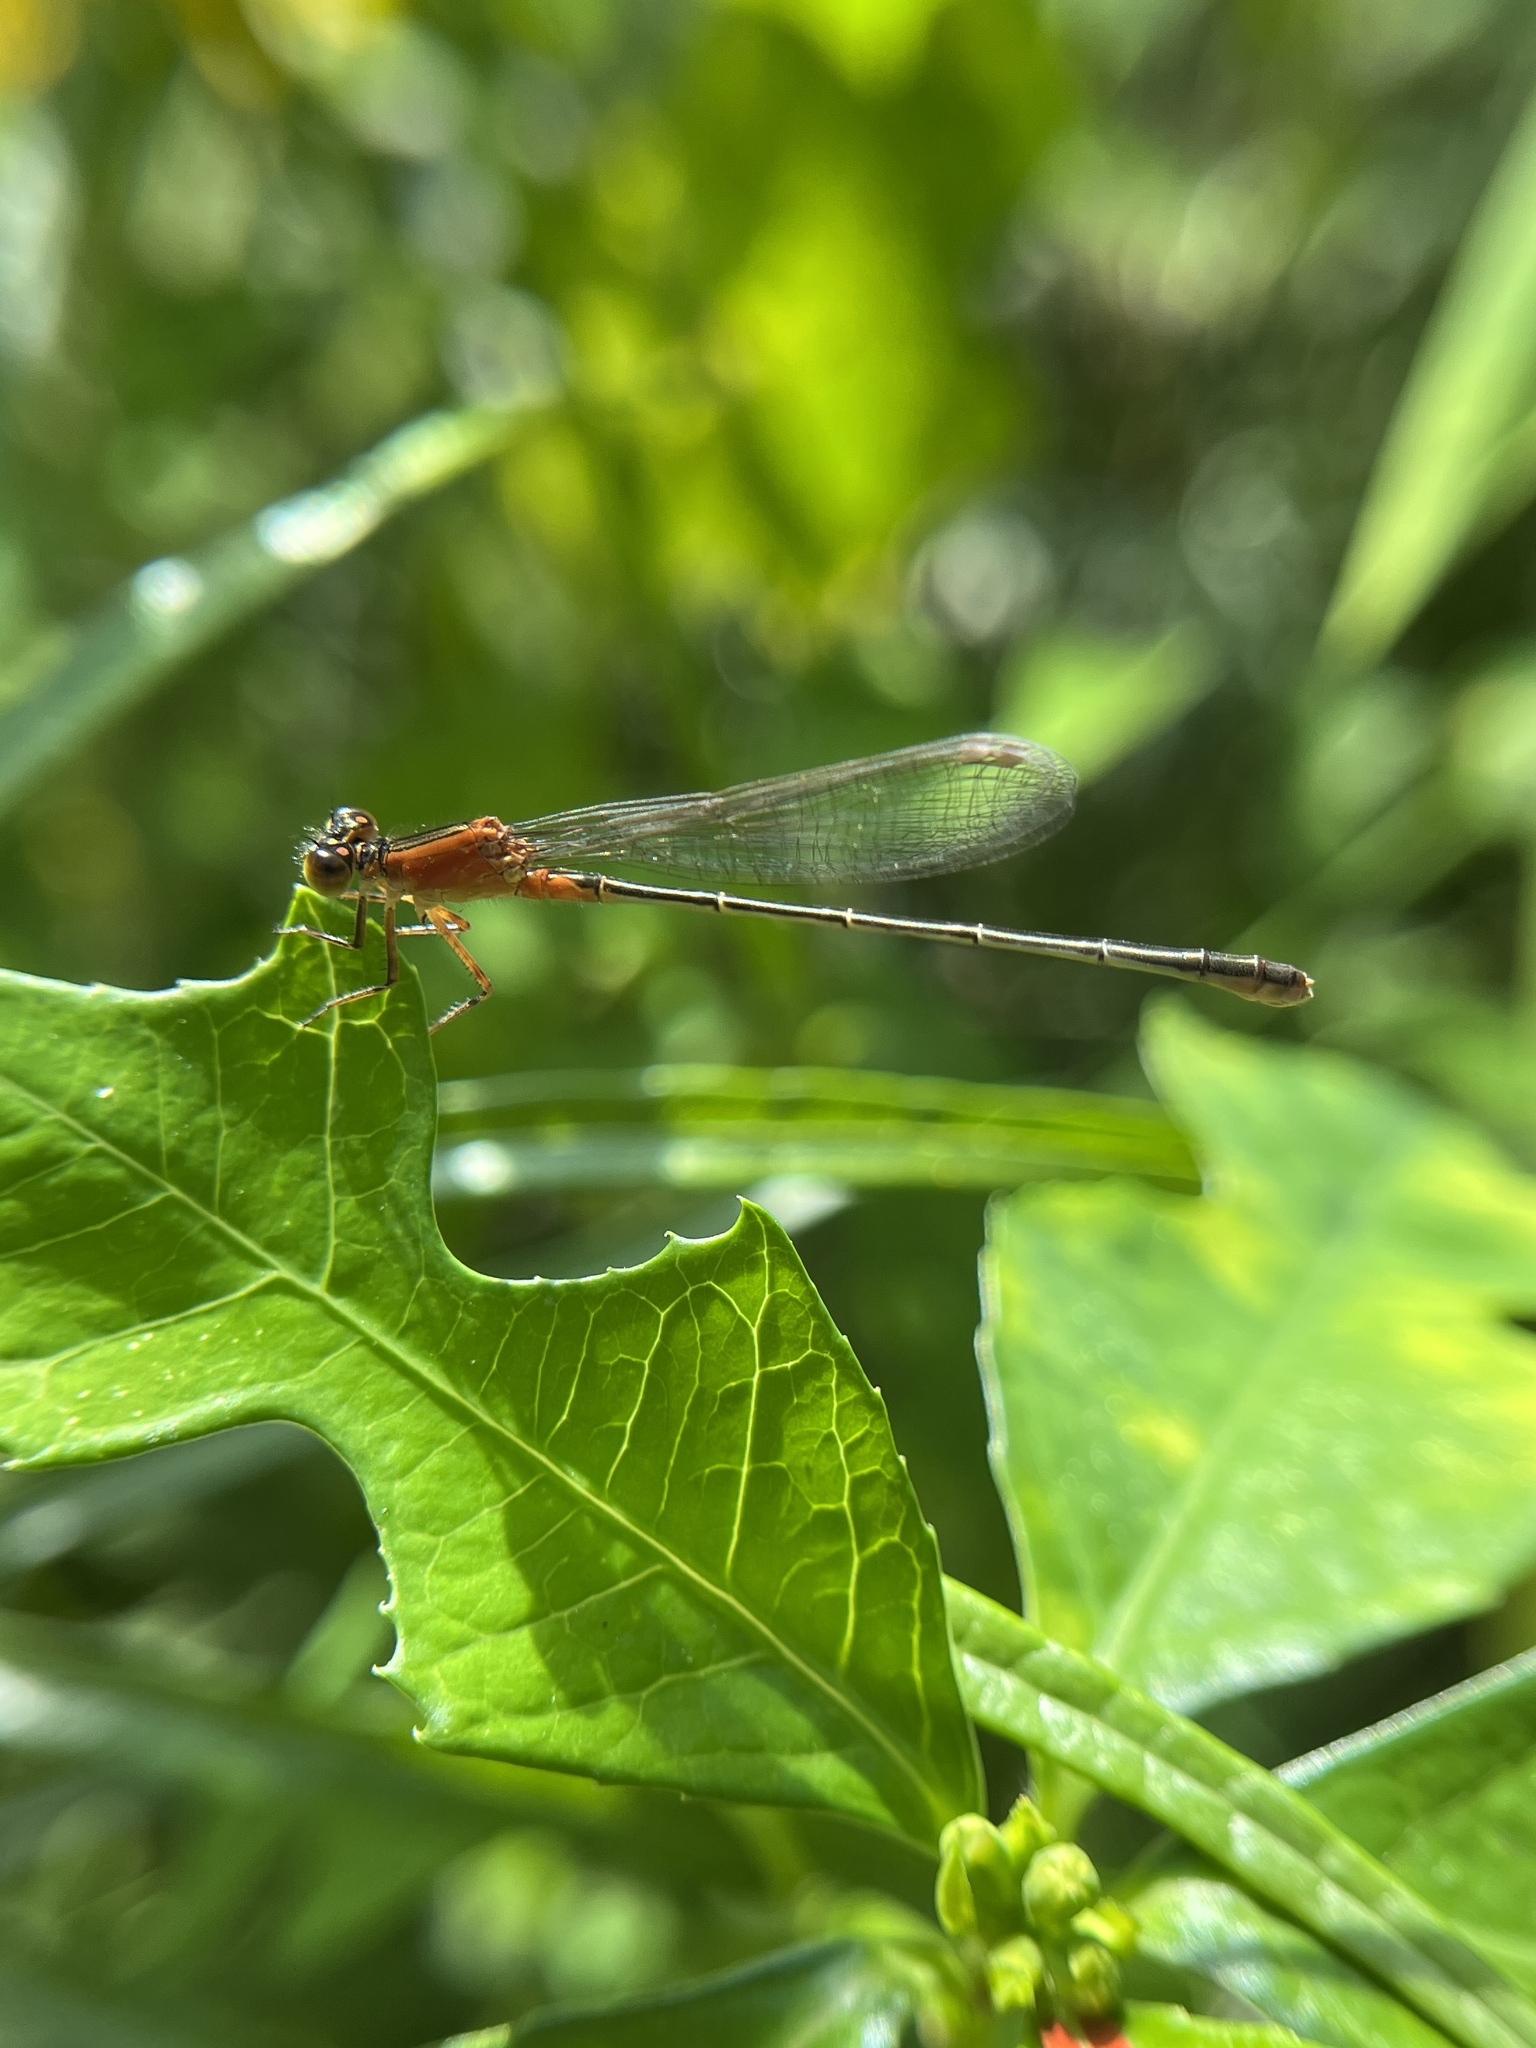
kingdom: Animalia
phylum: Arthropoda
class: Insecta
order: Odonata
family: Coenagrionidae
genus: Ischnura
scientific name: Ischnura ramburii
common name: Rambur's forktail
